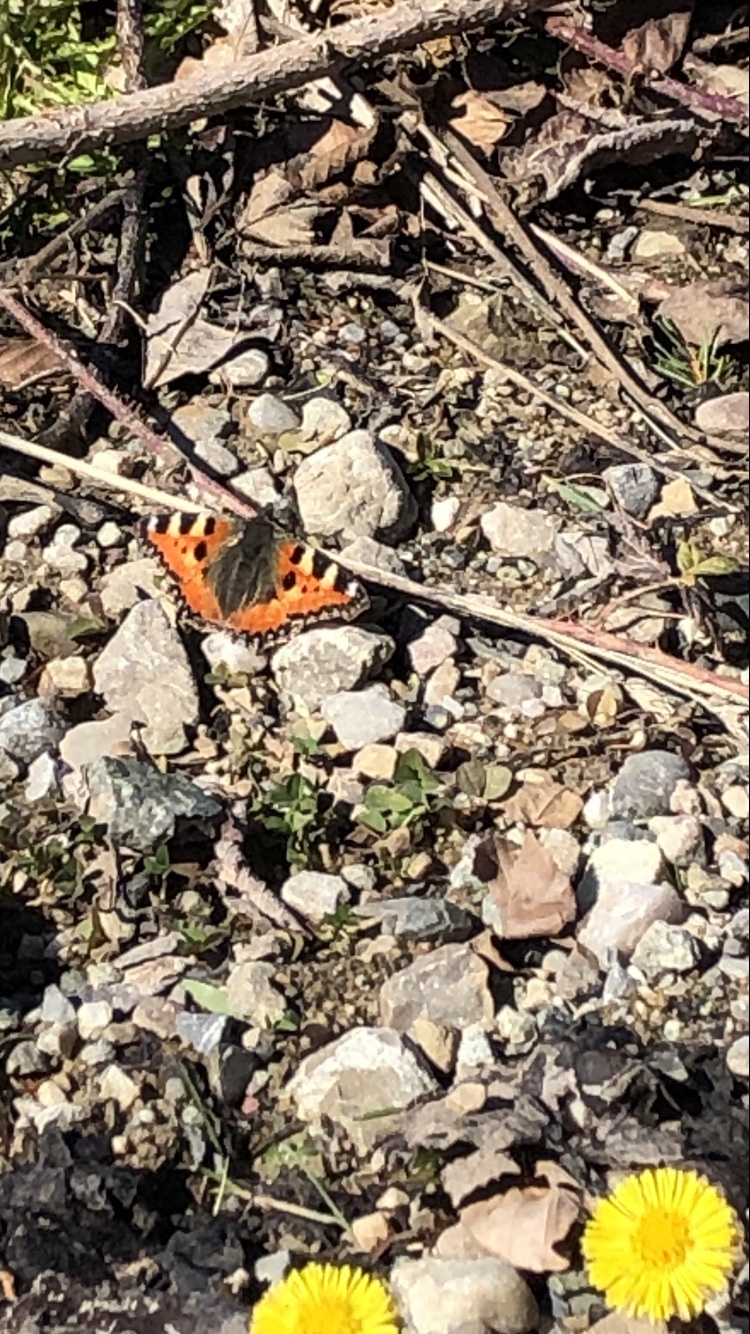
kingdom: Animalia
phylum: Arthropoda
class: Insecta
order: Lepidoptera
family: Nymphalidae
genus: Aglais
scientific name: Aglais urticae
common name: Small tortoiseshell
